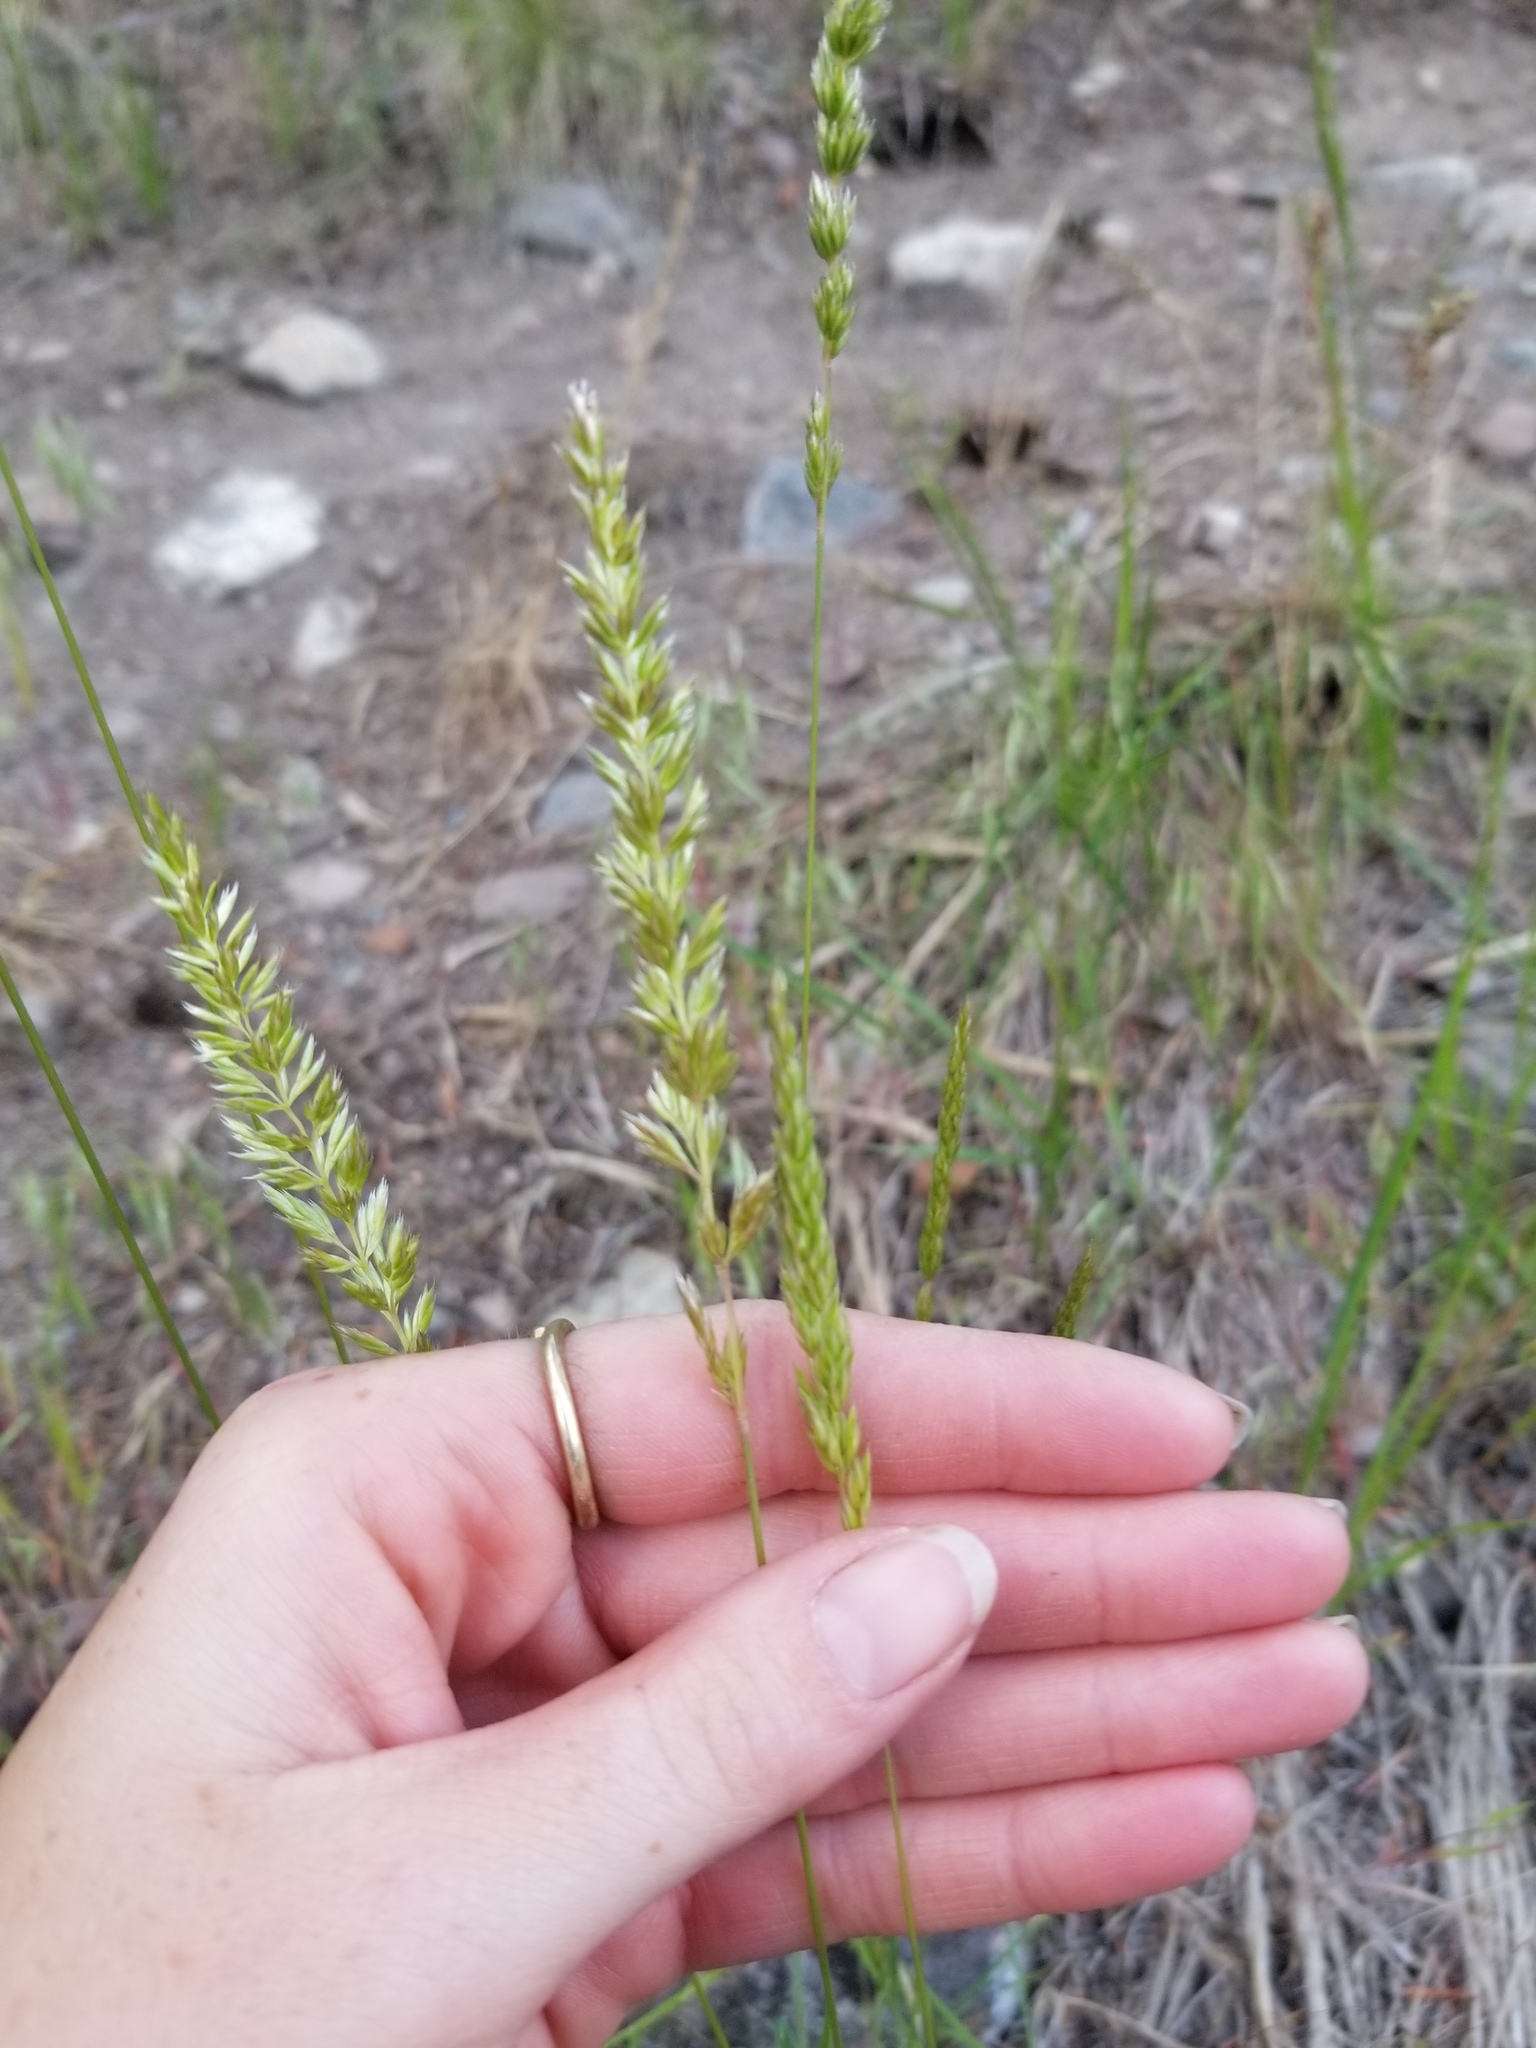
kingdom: Plantae
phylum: Tracheophyta
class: Liliopsida
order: Poales
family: Poaceae
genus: Koeleria
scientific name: Koeleria macrantha
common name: Crested hair-grass
